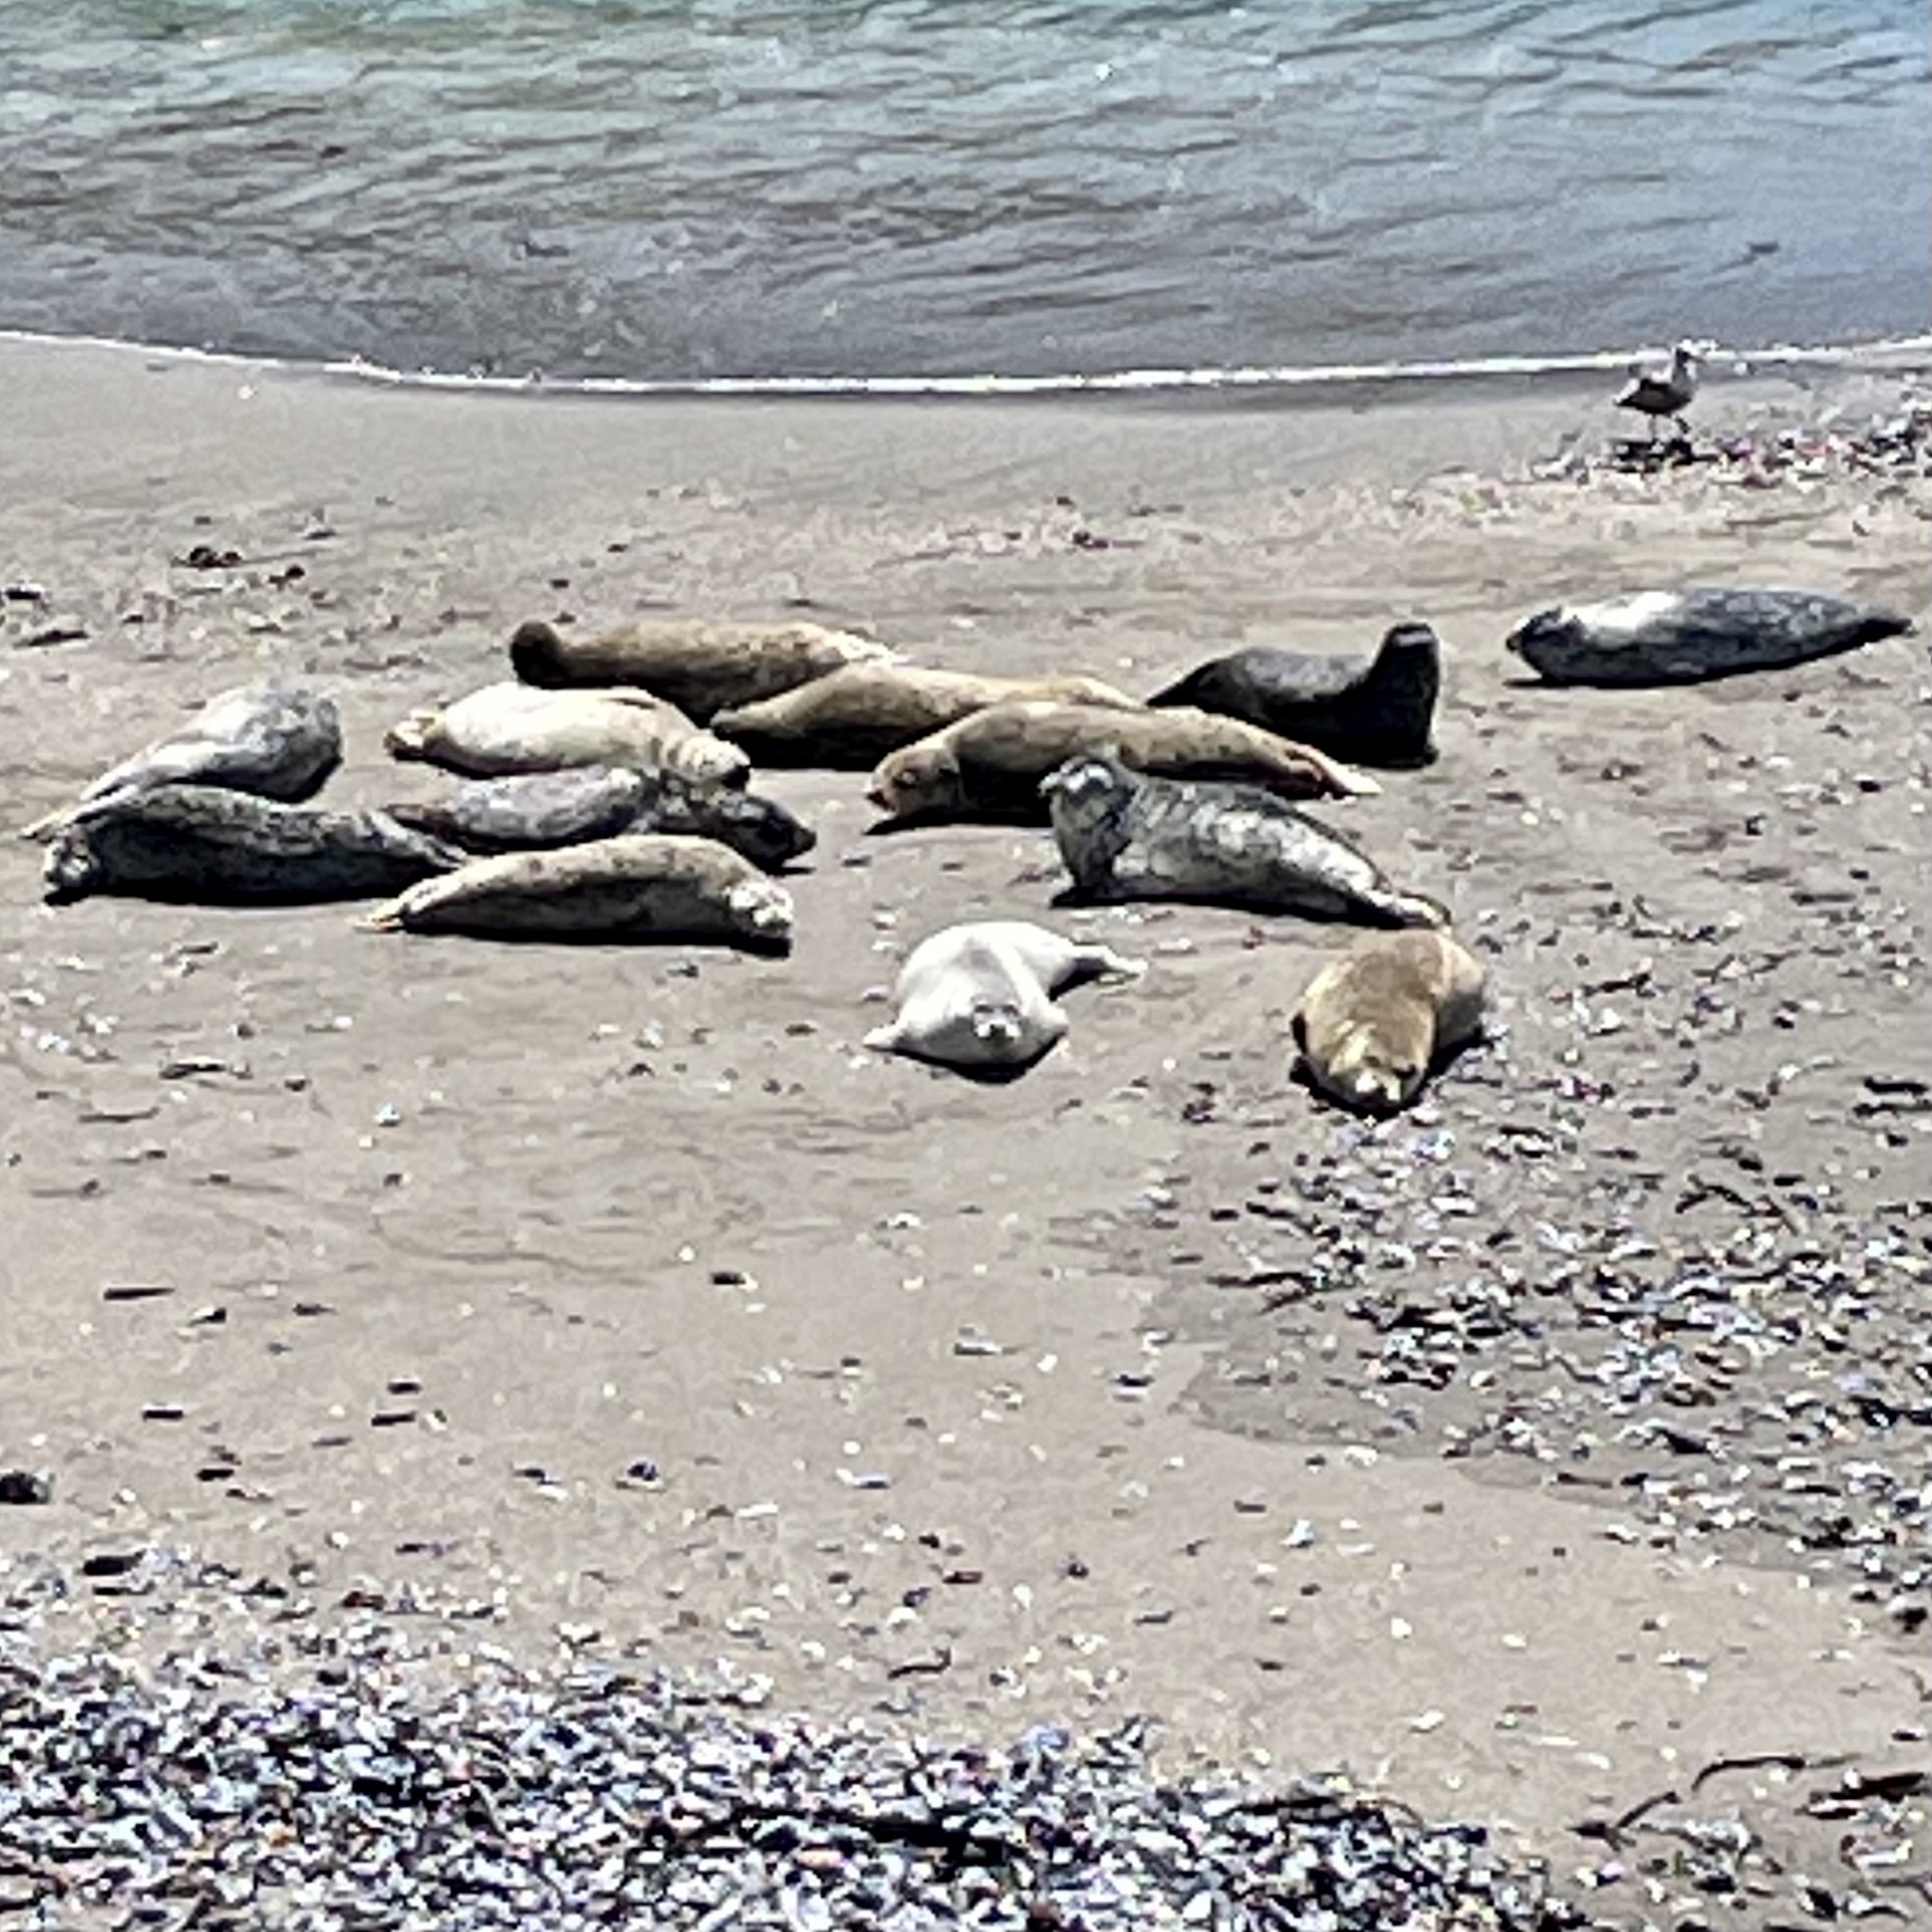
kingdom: Animalia
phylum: Chordata
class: Mammalia
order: Carnivora
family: Phocidae
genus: Phoca
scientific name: Phoca vitulina
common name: Harbor seal
